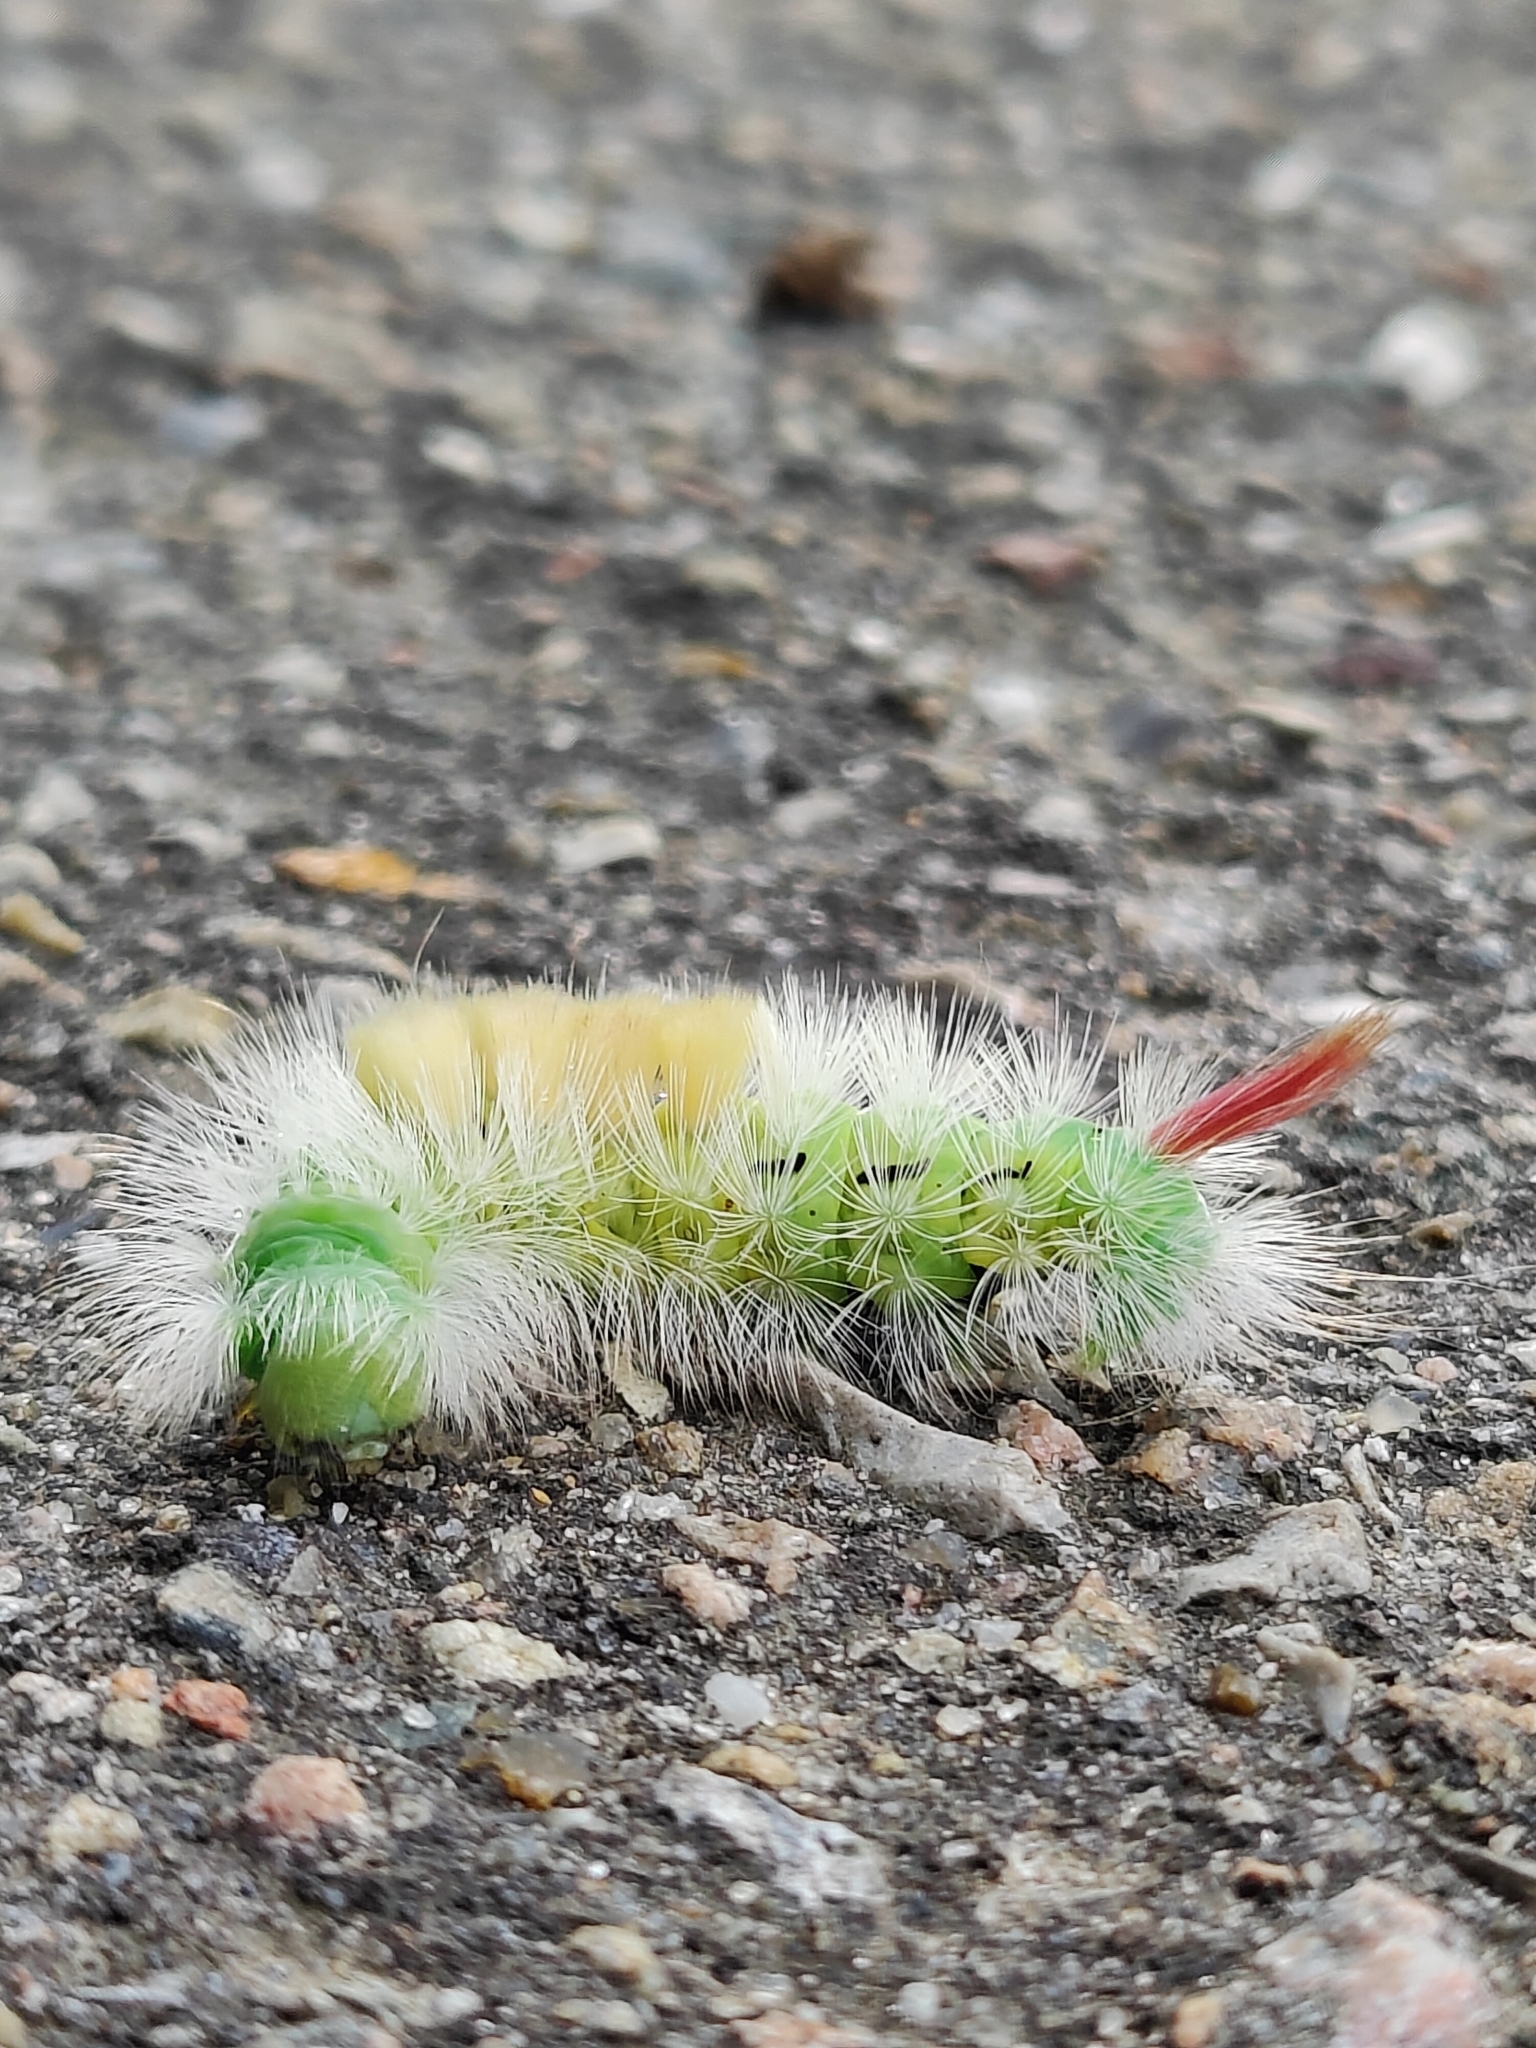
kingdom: Animalia
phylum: Arthropoda
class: Insecta
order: Lepidoptera
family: Erebidae
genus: Calliteara
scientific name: Calliteara pudibunda
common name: Pale tussock
